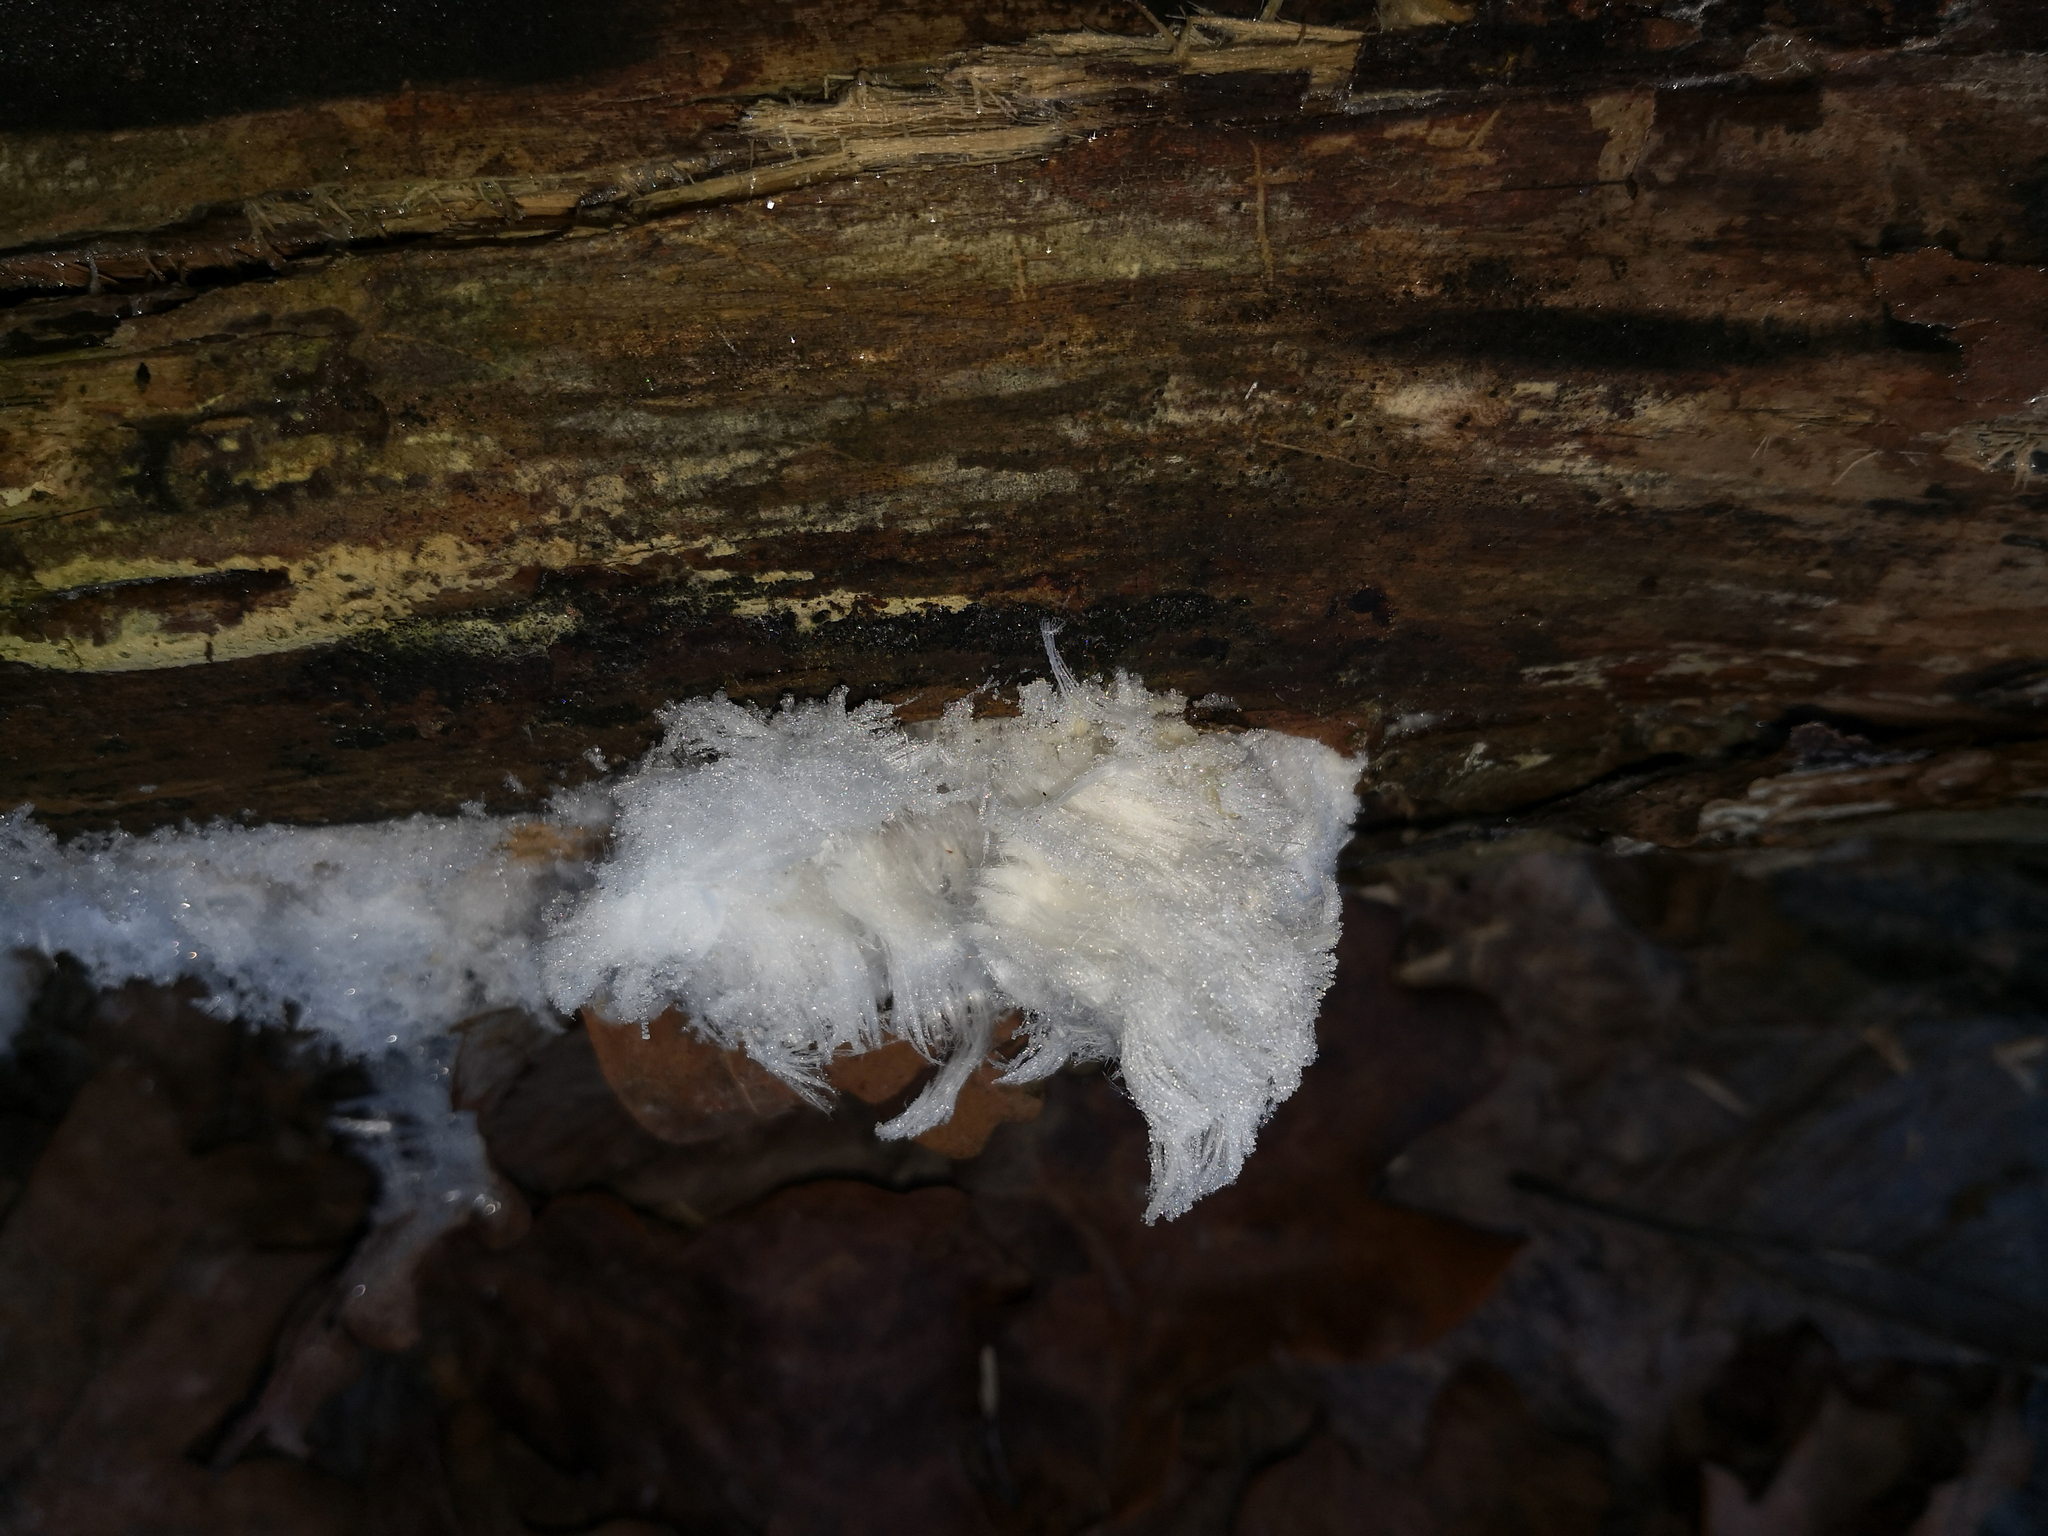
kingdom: Fungi
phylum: Basidiomycota
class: Agaricomycetes
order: Auriculariales
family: Auriculariaceae
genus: Exidiopsis
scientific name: Exidiopsis effusa
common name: Hair ice crust
